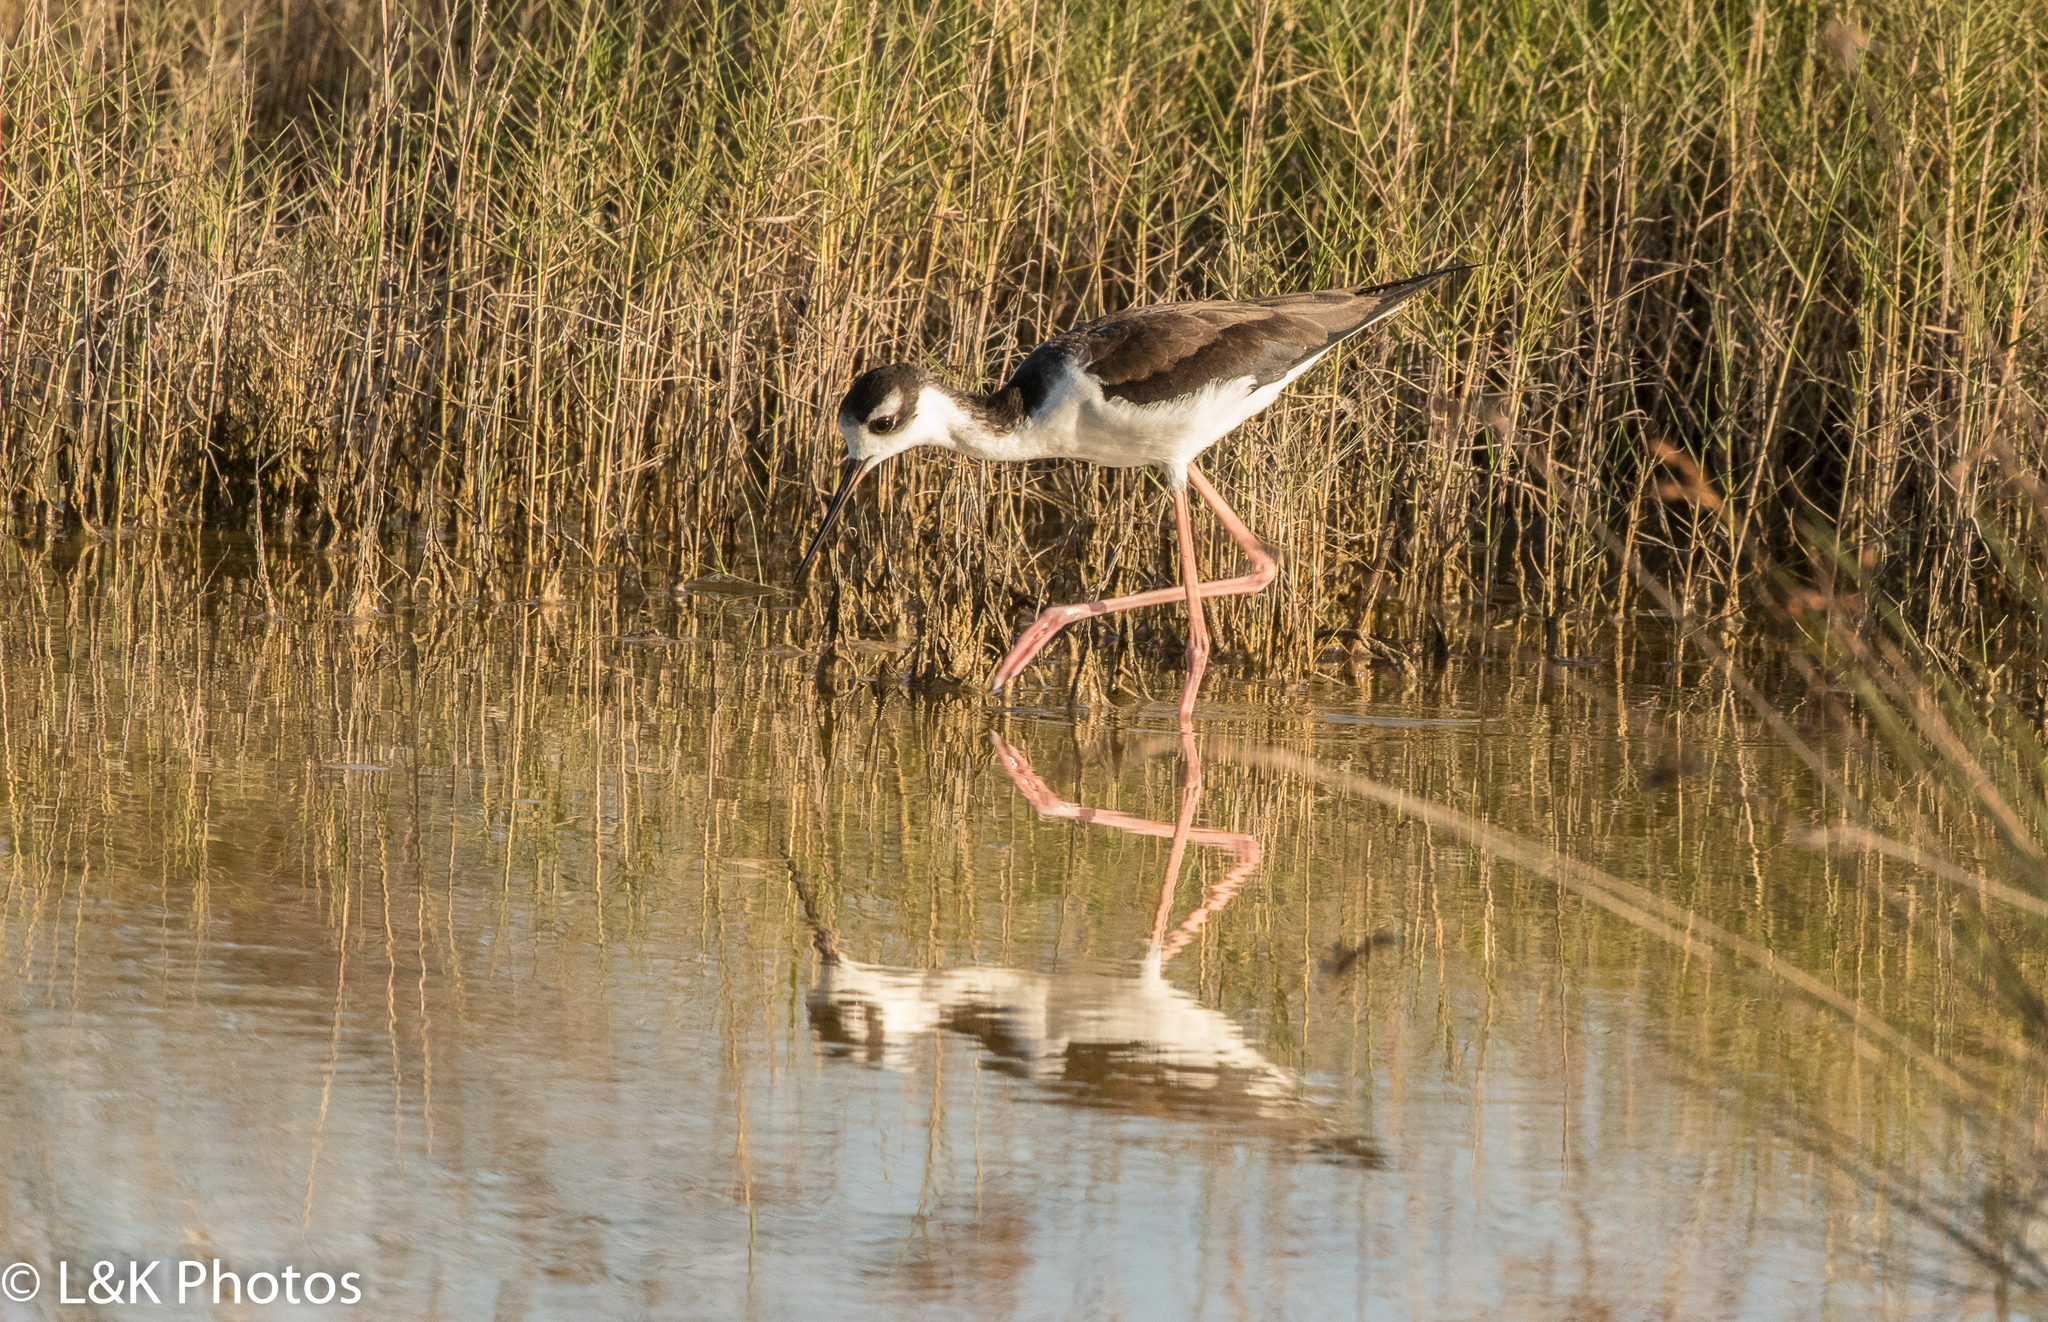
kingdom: Animalia
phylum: Chordata
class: Aves
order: Charadriiformes
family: Recurvirostridae
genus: Himantopus
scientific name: Himantopus mexicanus
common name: Black-necked stilt
